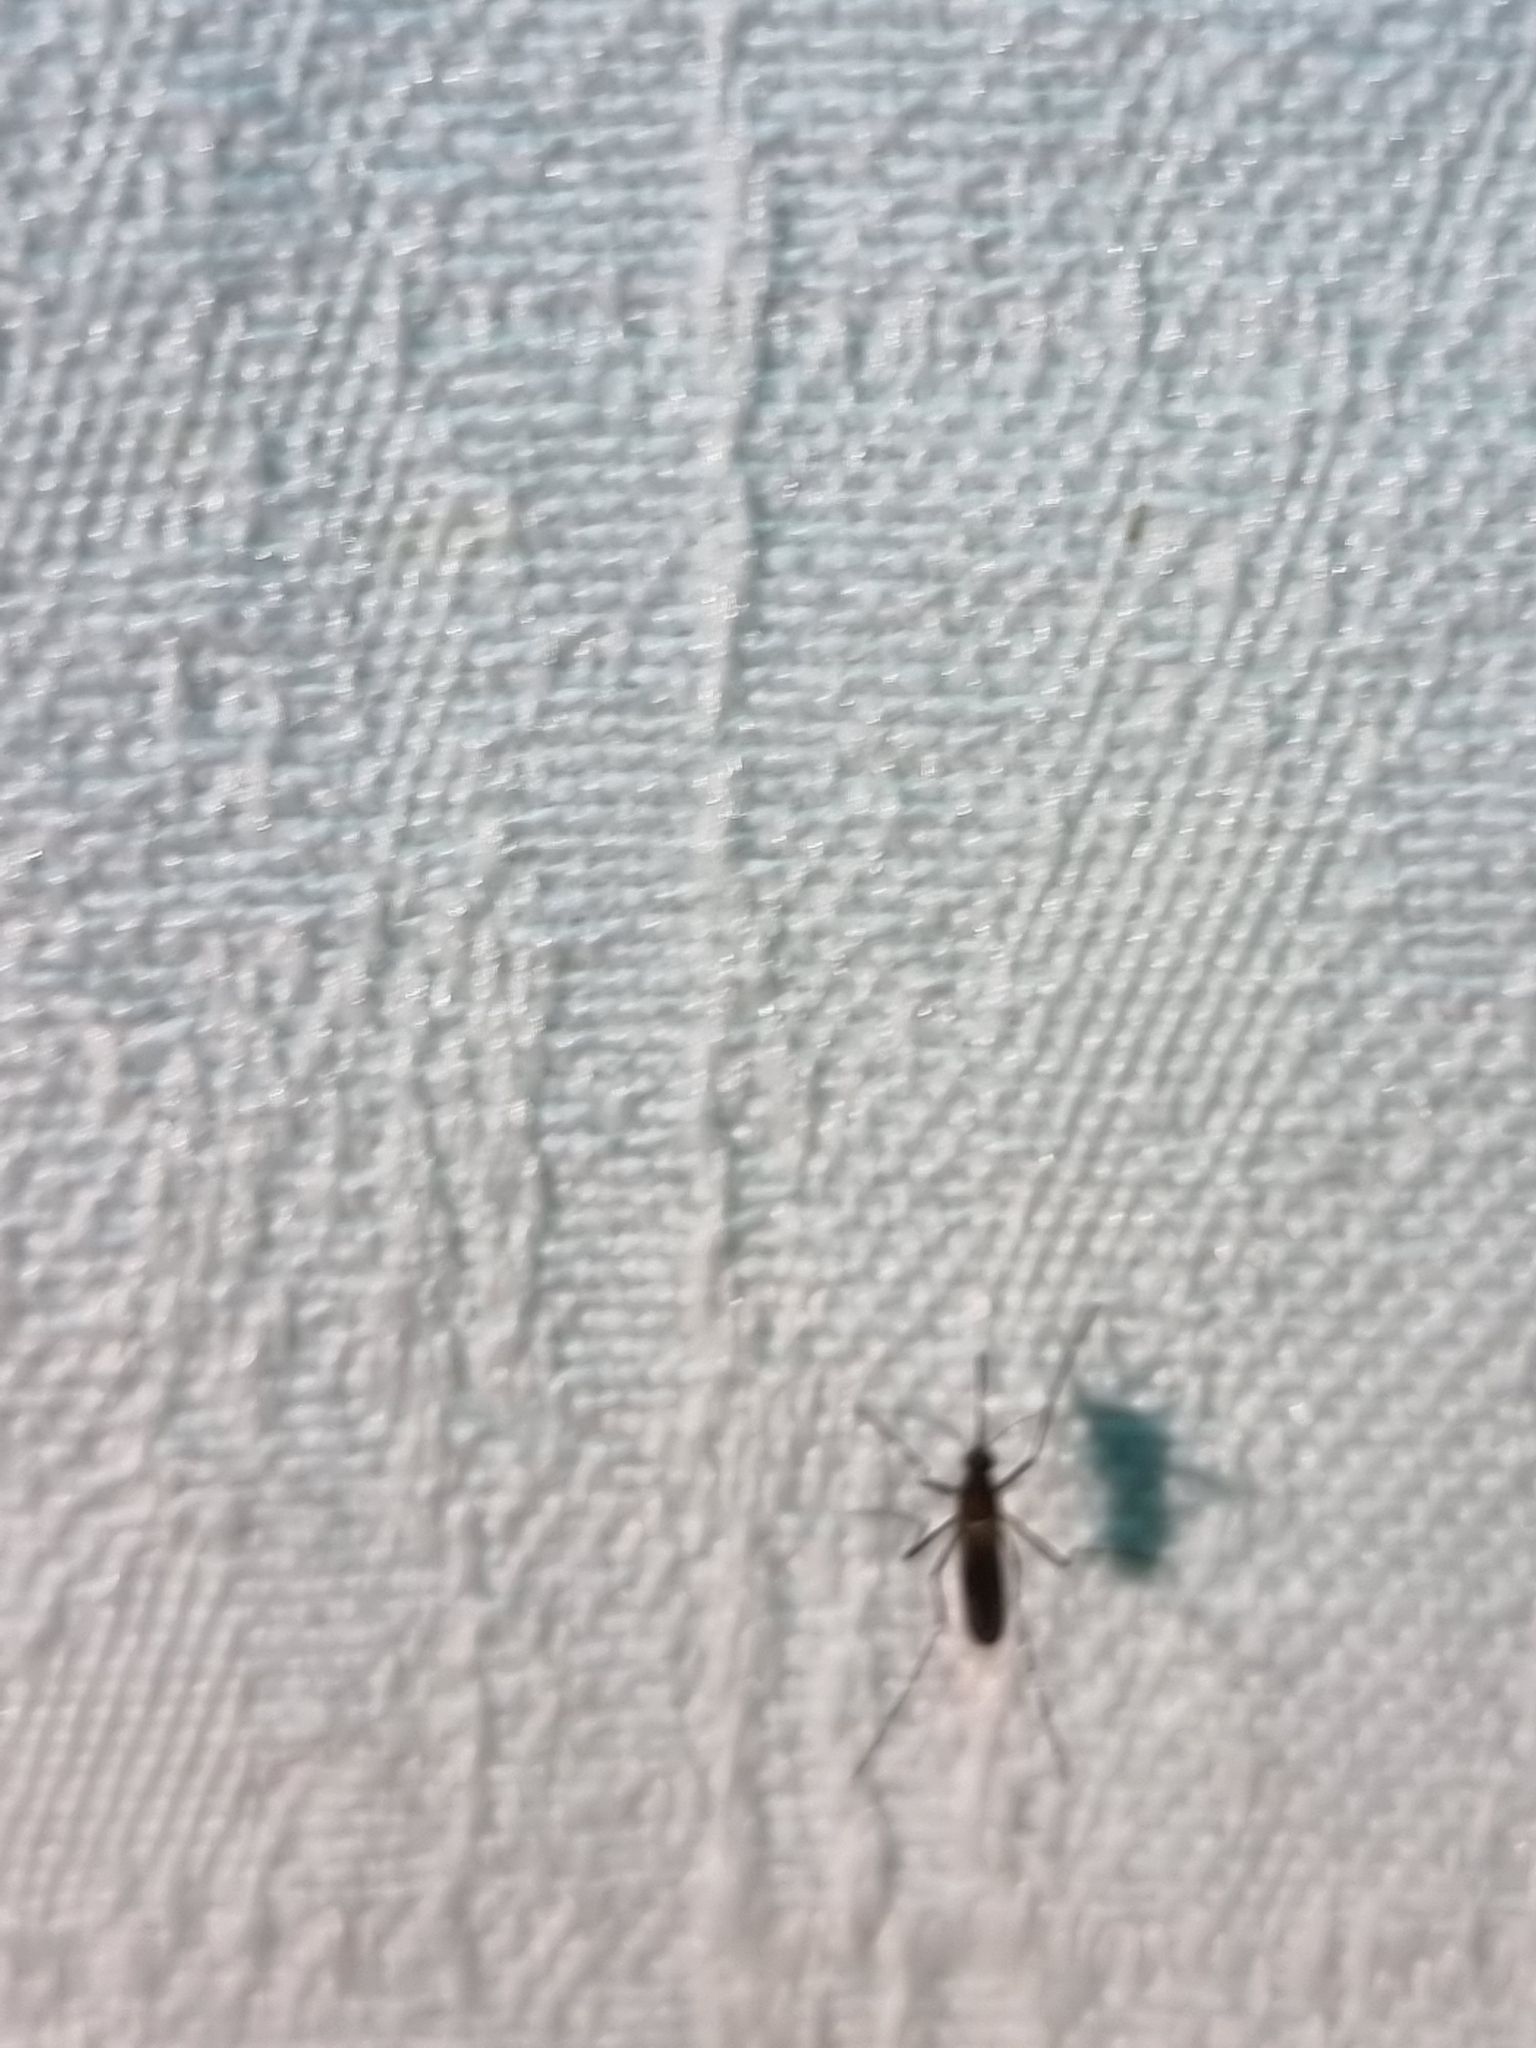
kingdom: Animalia
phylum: Arthropoda
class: Insecta
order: Diptera
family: Culicidae
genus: Aedes
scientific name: Aedes notoscriptus
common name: Australian backyard mosquito
